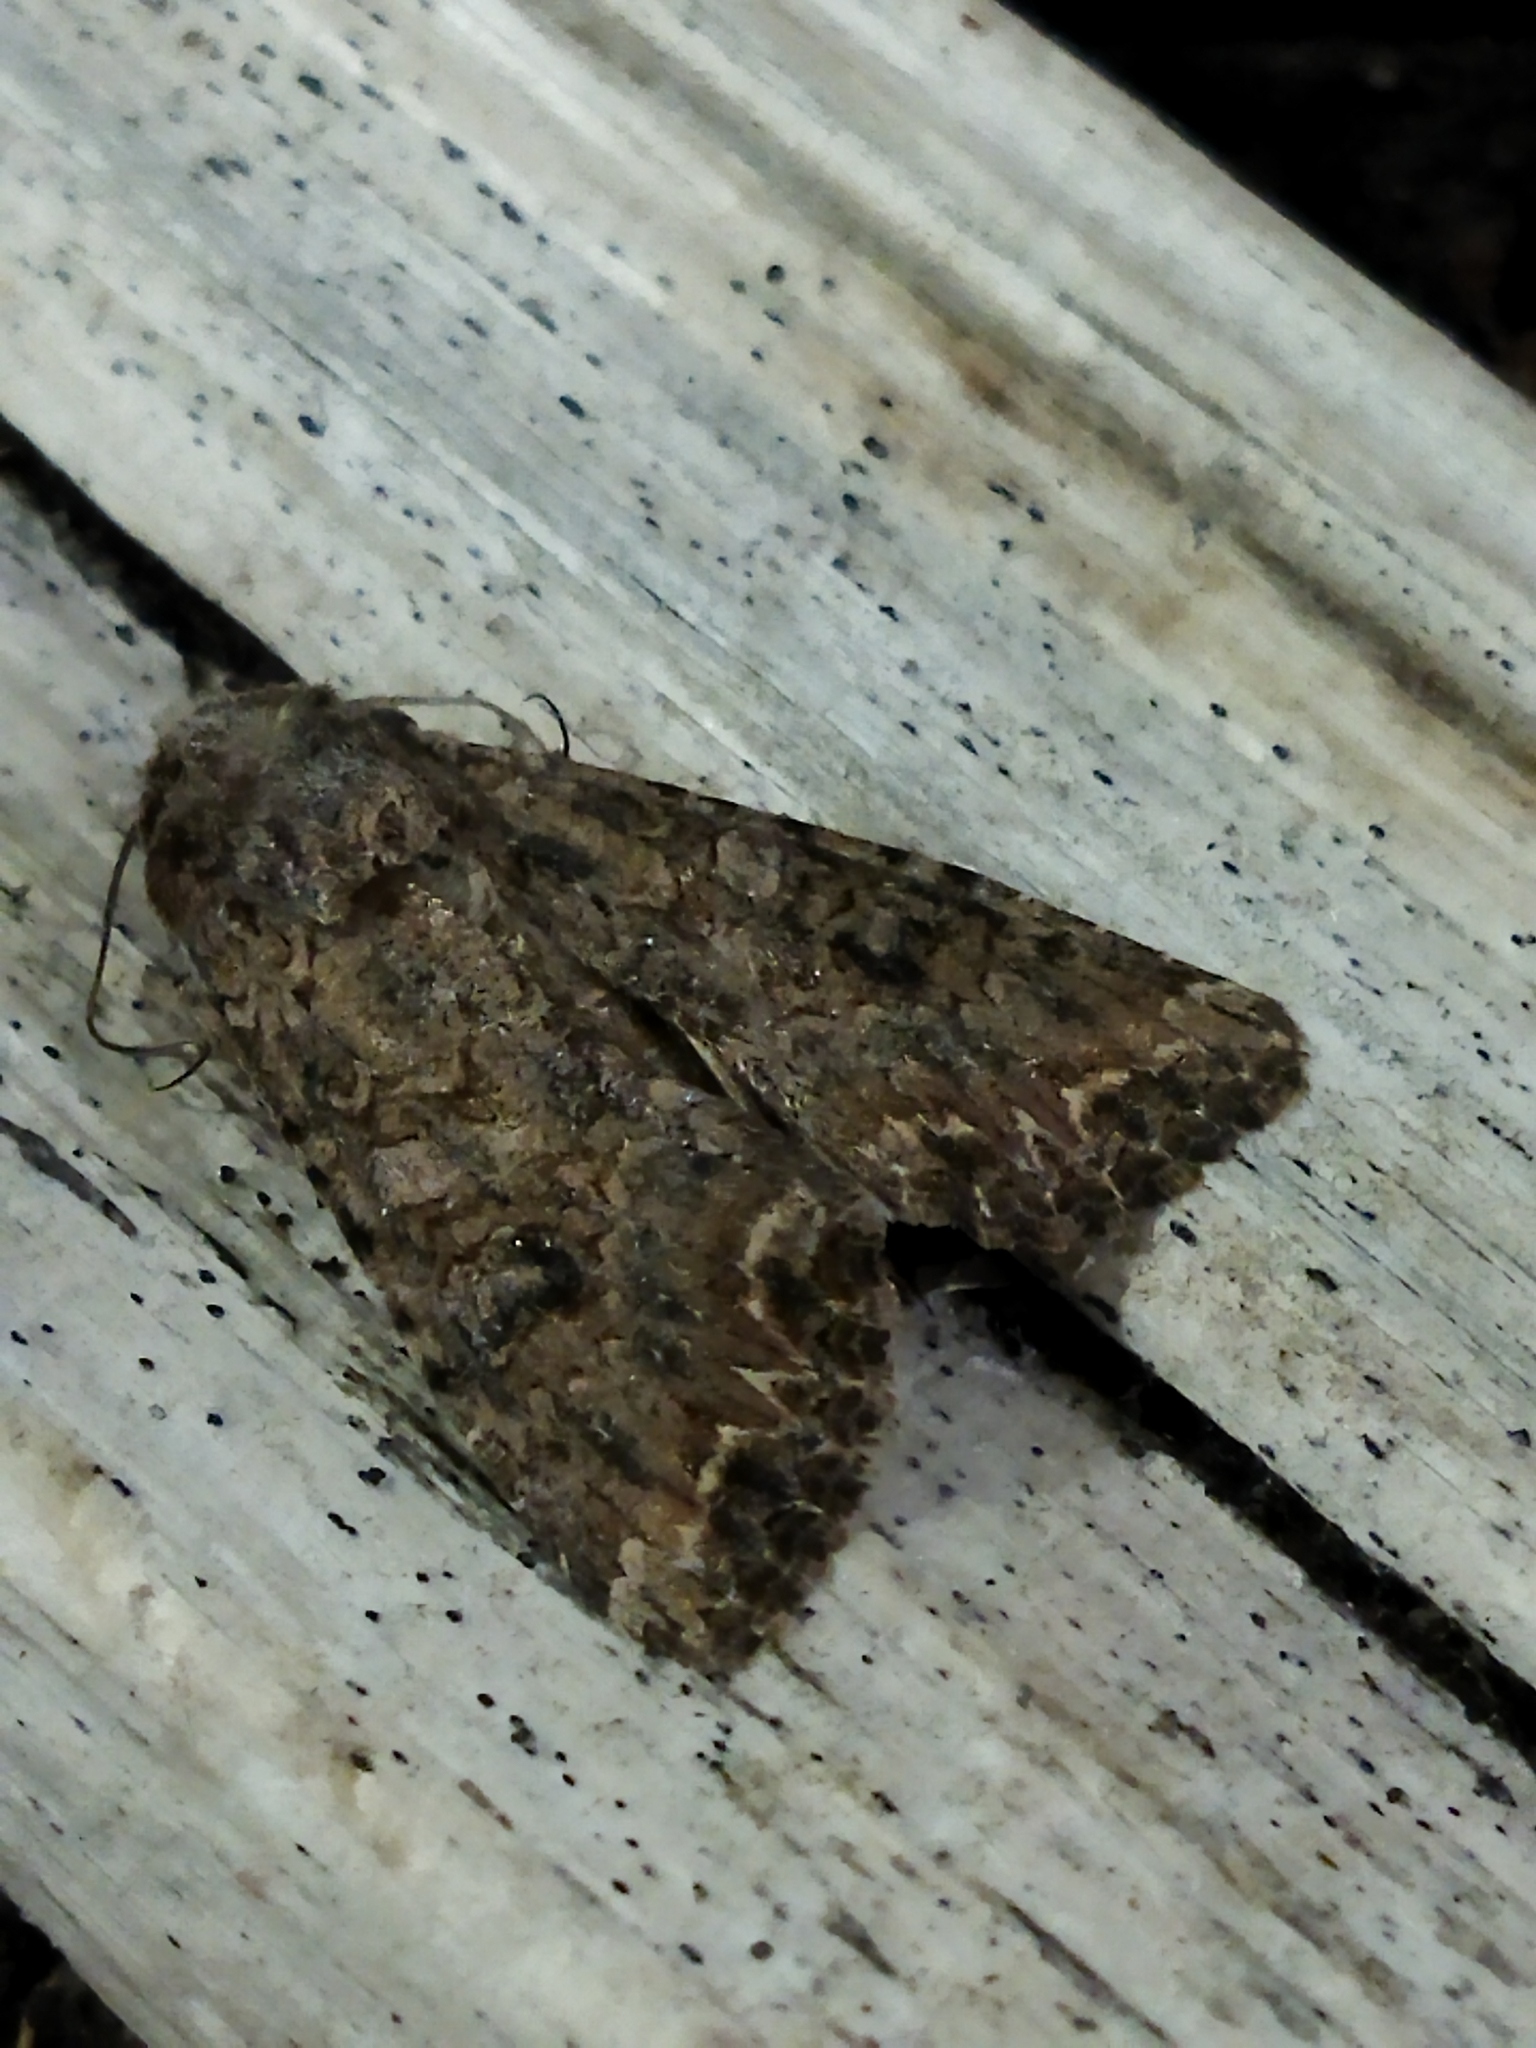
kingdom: Animalia
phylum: Arthropoda
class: Insecta
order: Lepidoptera
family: Noctuidae
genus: Anarta
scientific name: Anarta trifolii
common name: Clover cutworm moth
